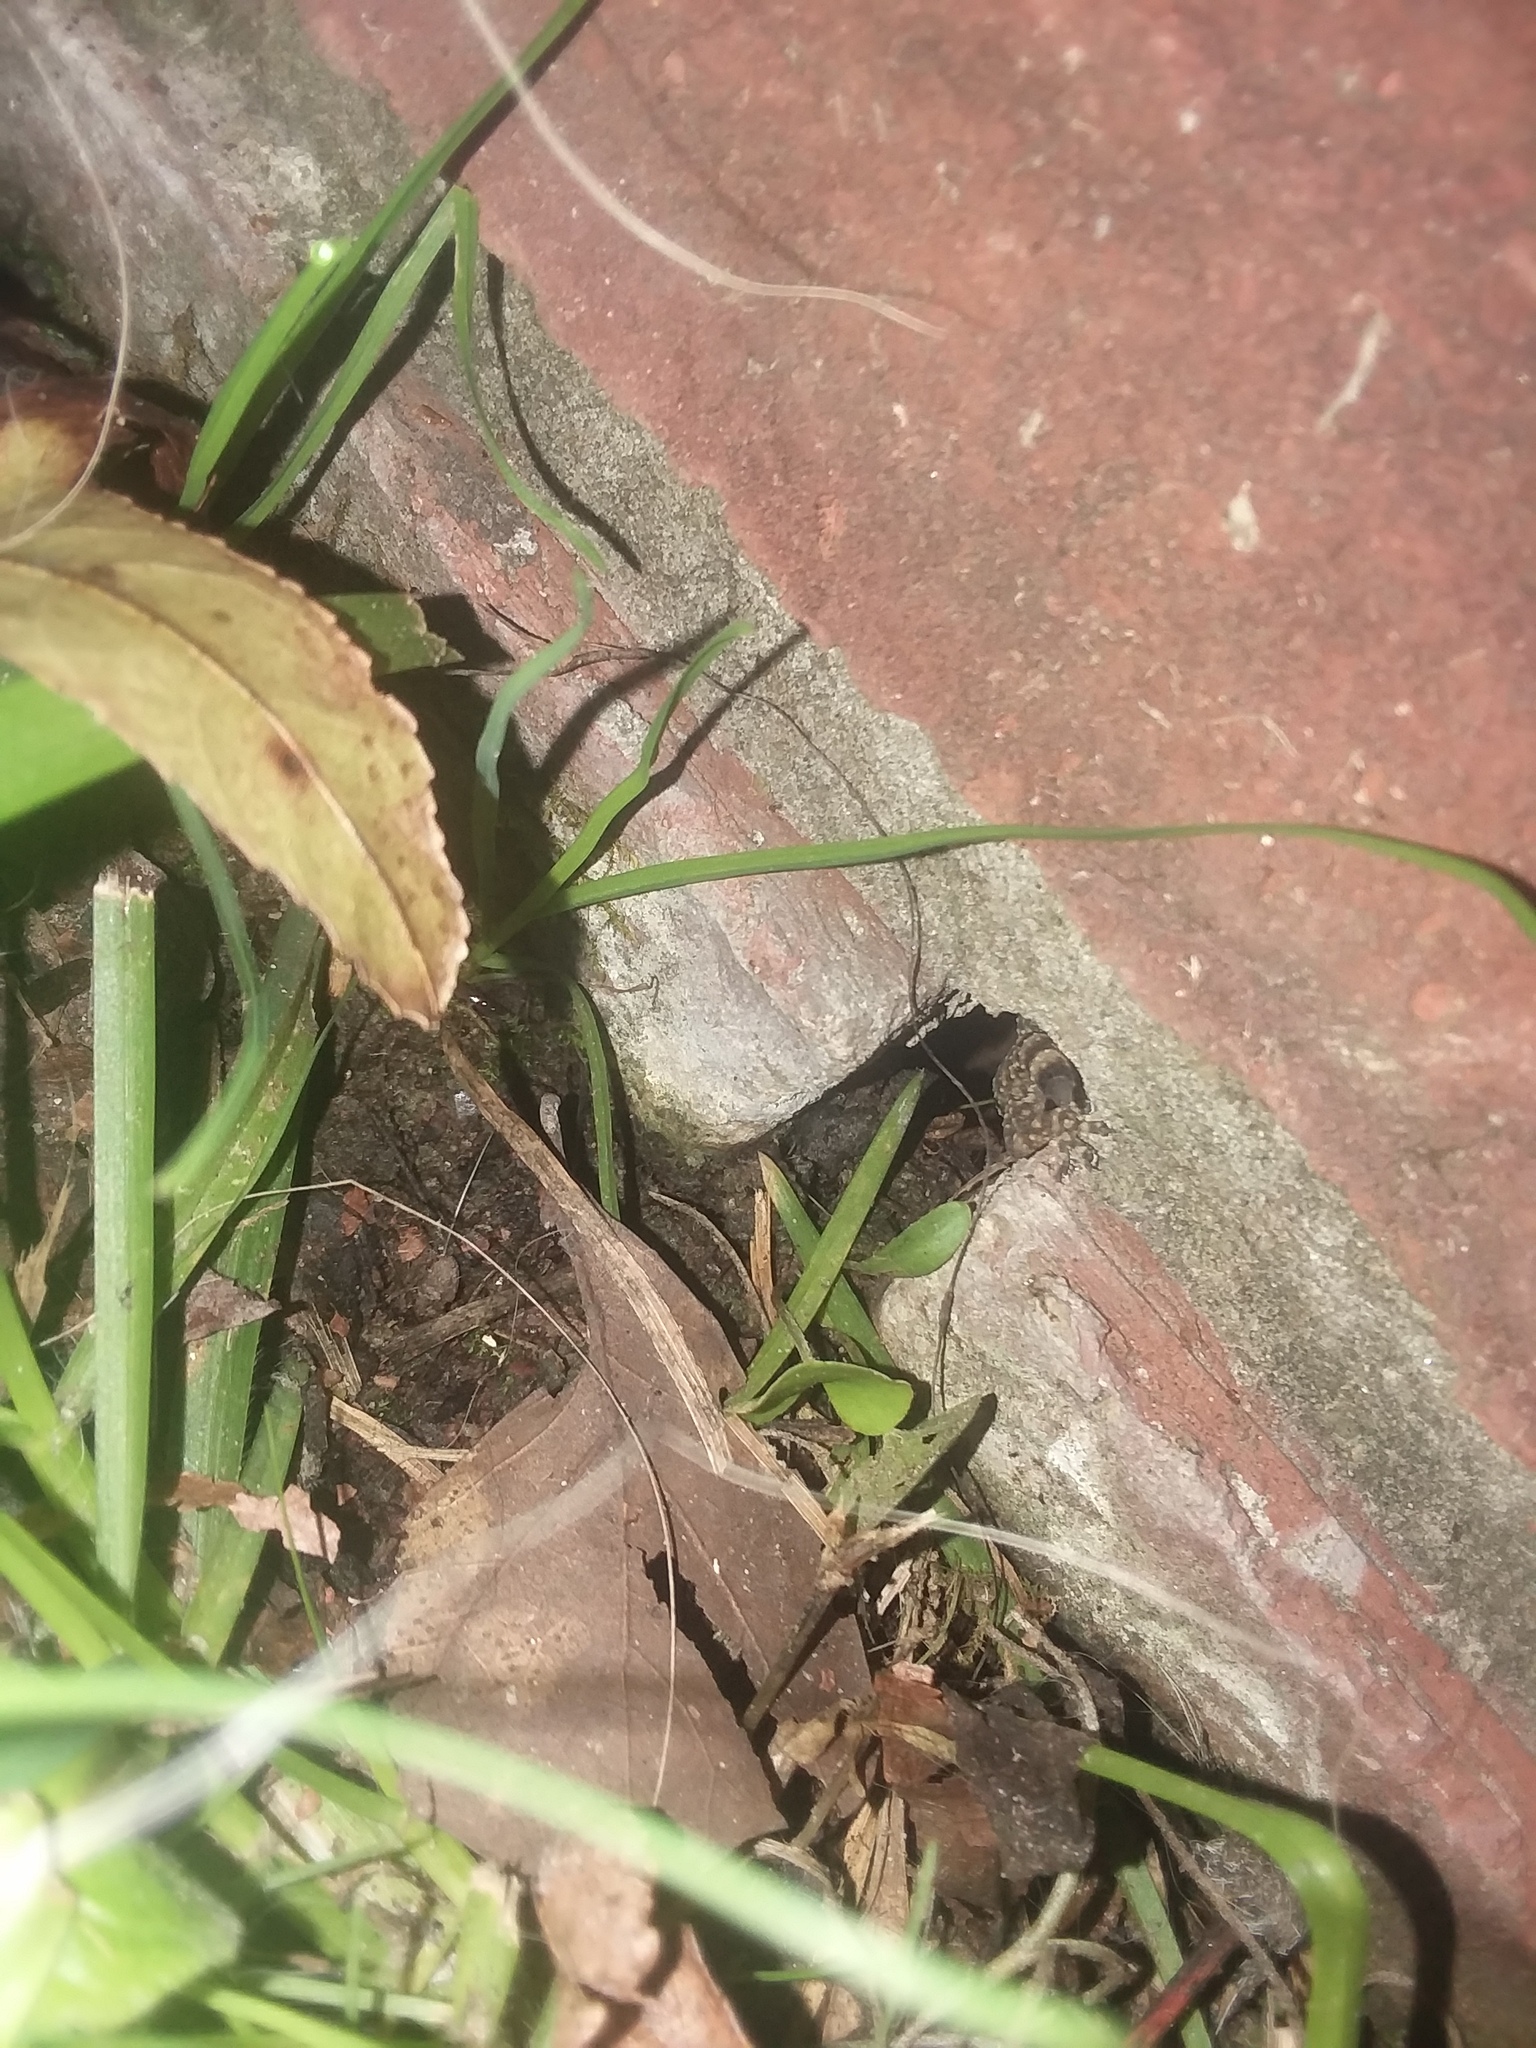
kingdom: Animalia
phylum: Chordata
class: Squamata
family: Gekkonidae
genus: Hemidactylus
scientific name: Hemidactylus turcicus
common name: Turkish gecko
